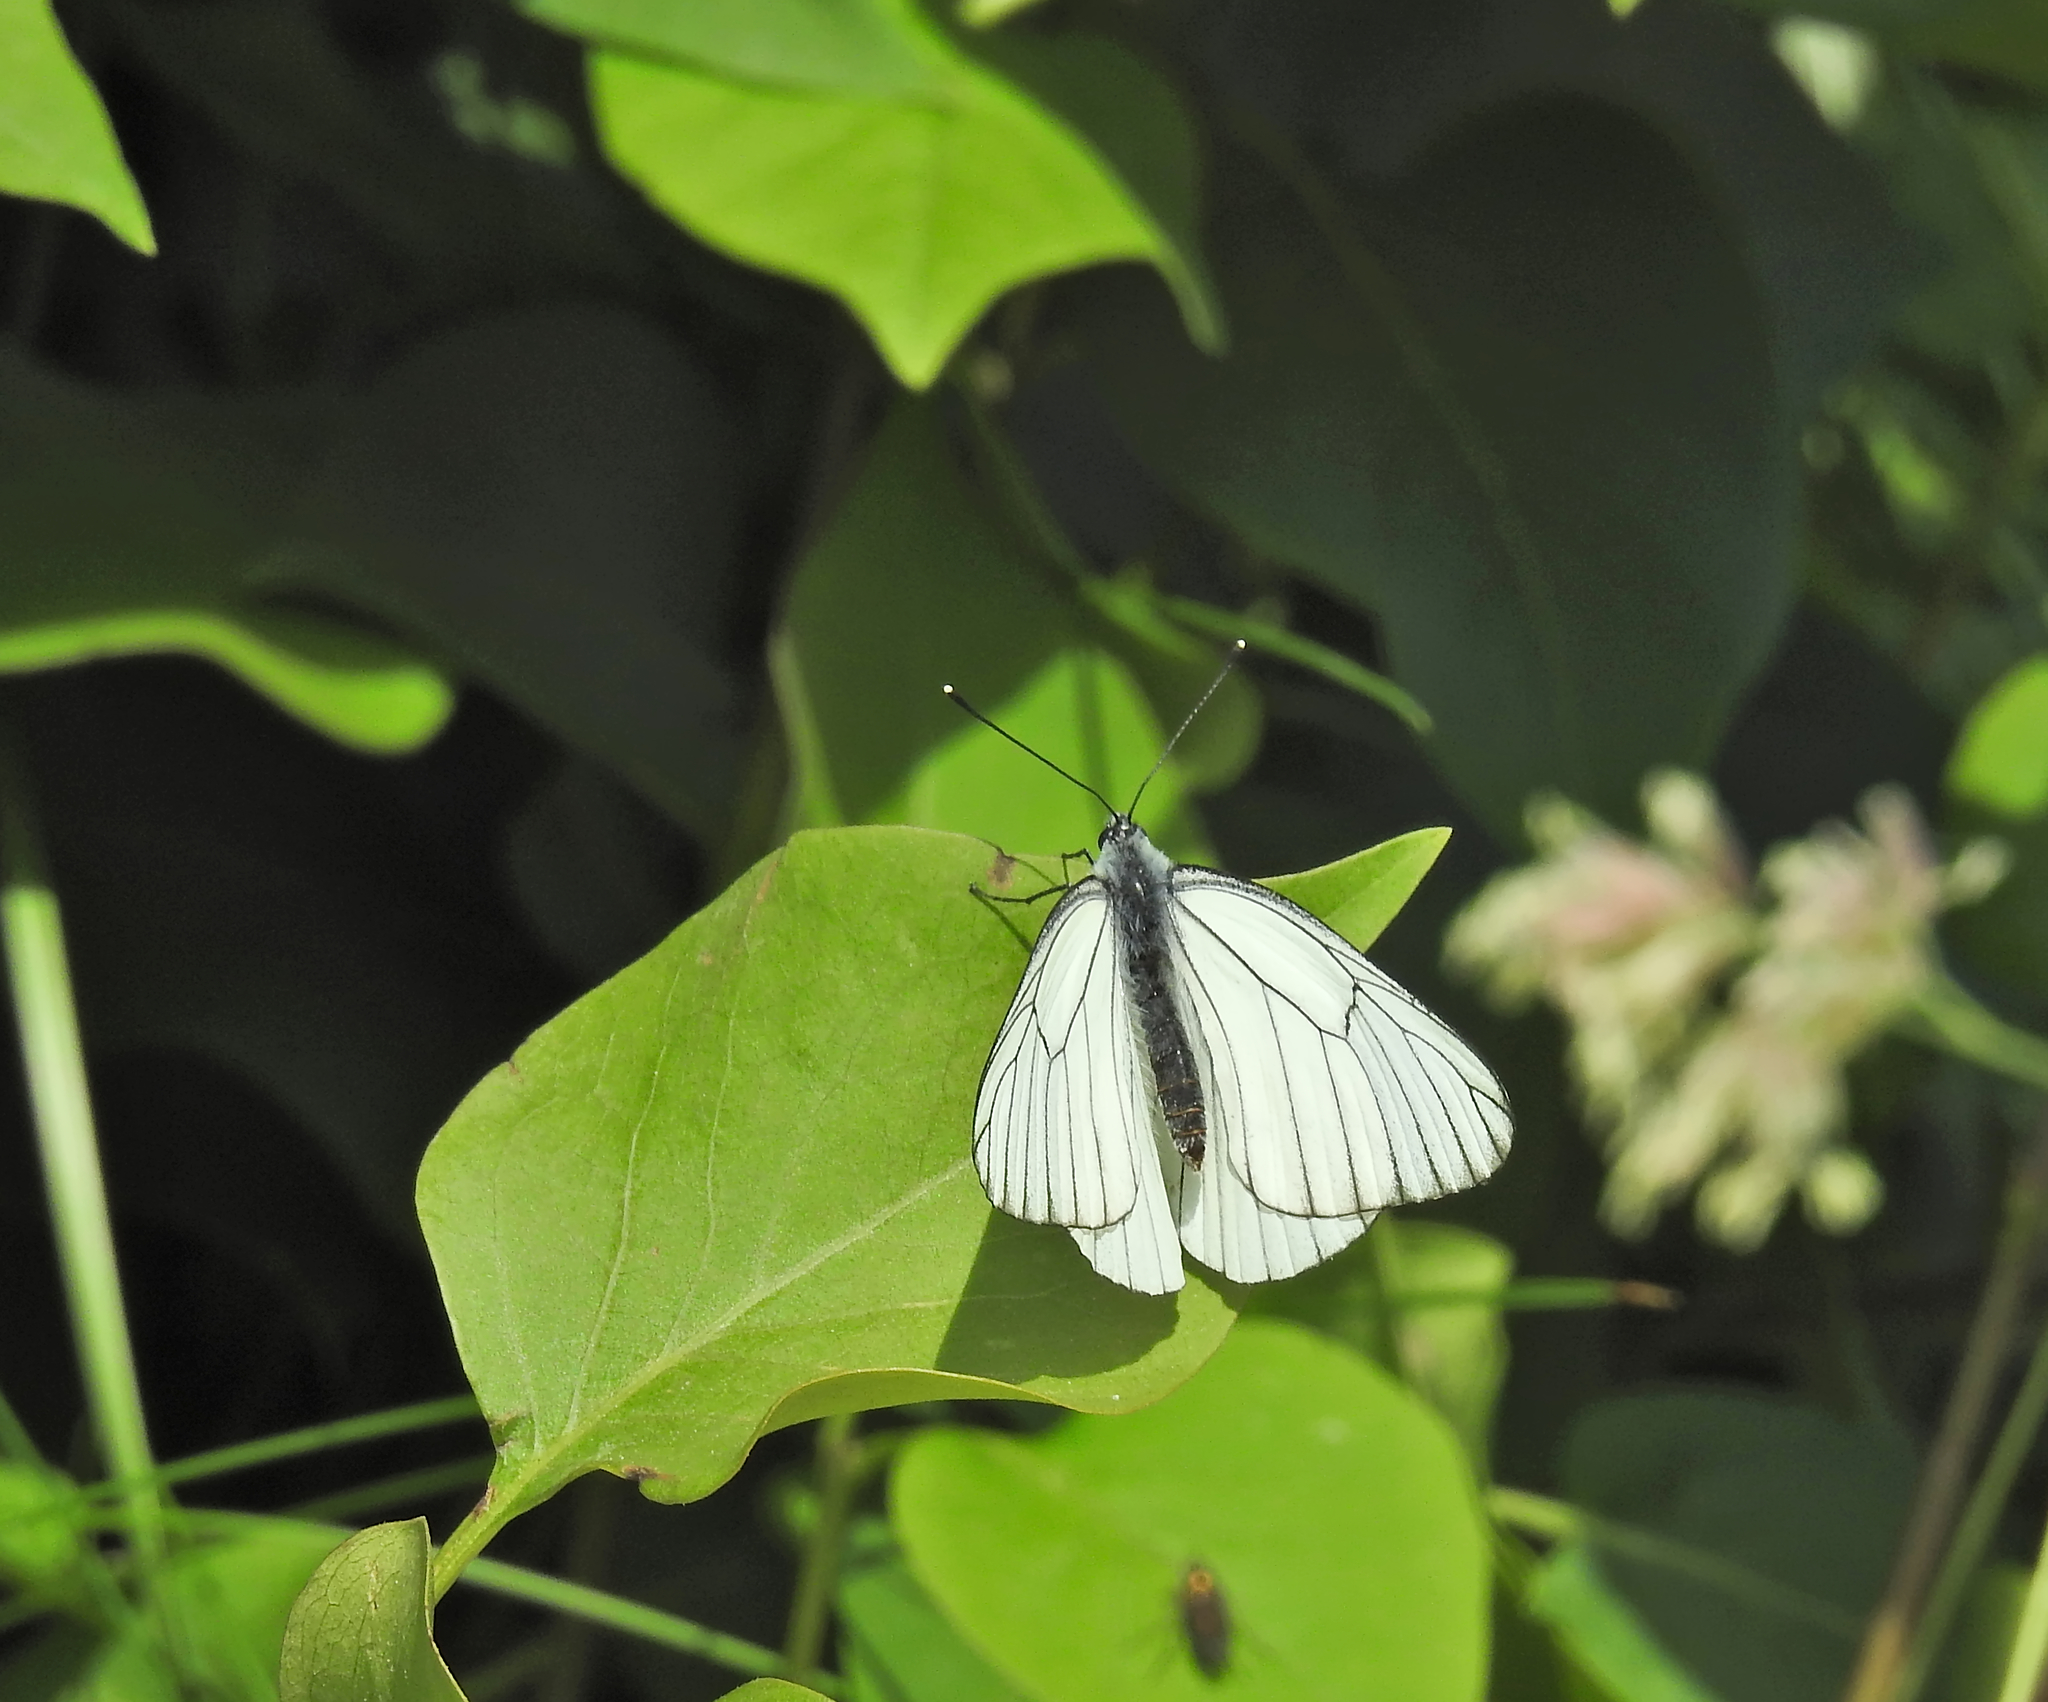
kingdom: Animalia
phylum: Arthropoda
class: Insecta
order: Lepidoptera
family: Pieridae
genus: Aporia
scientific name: Aporia crataegi
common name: Black-veined white
